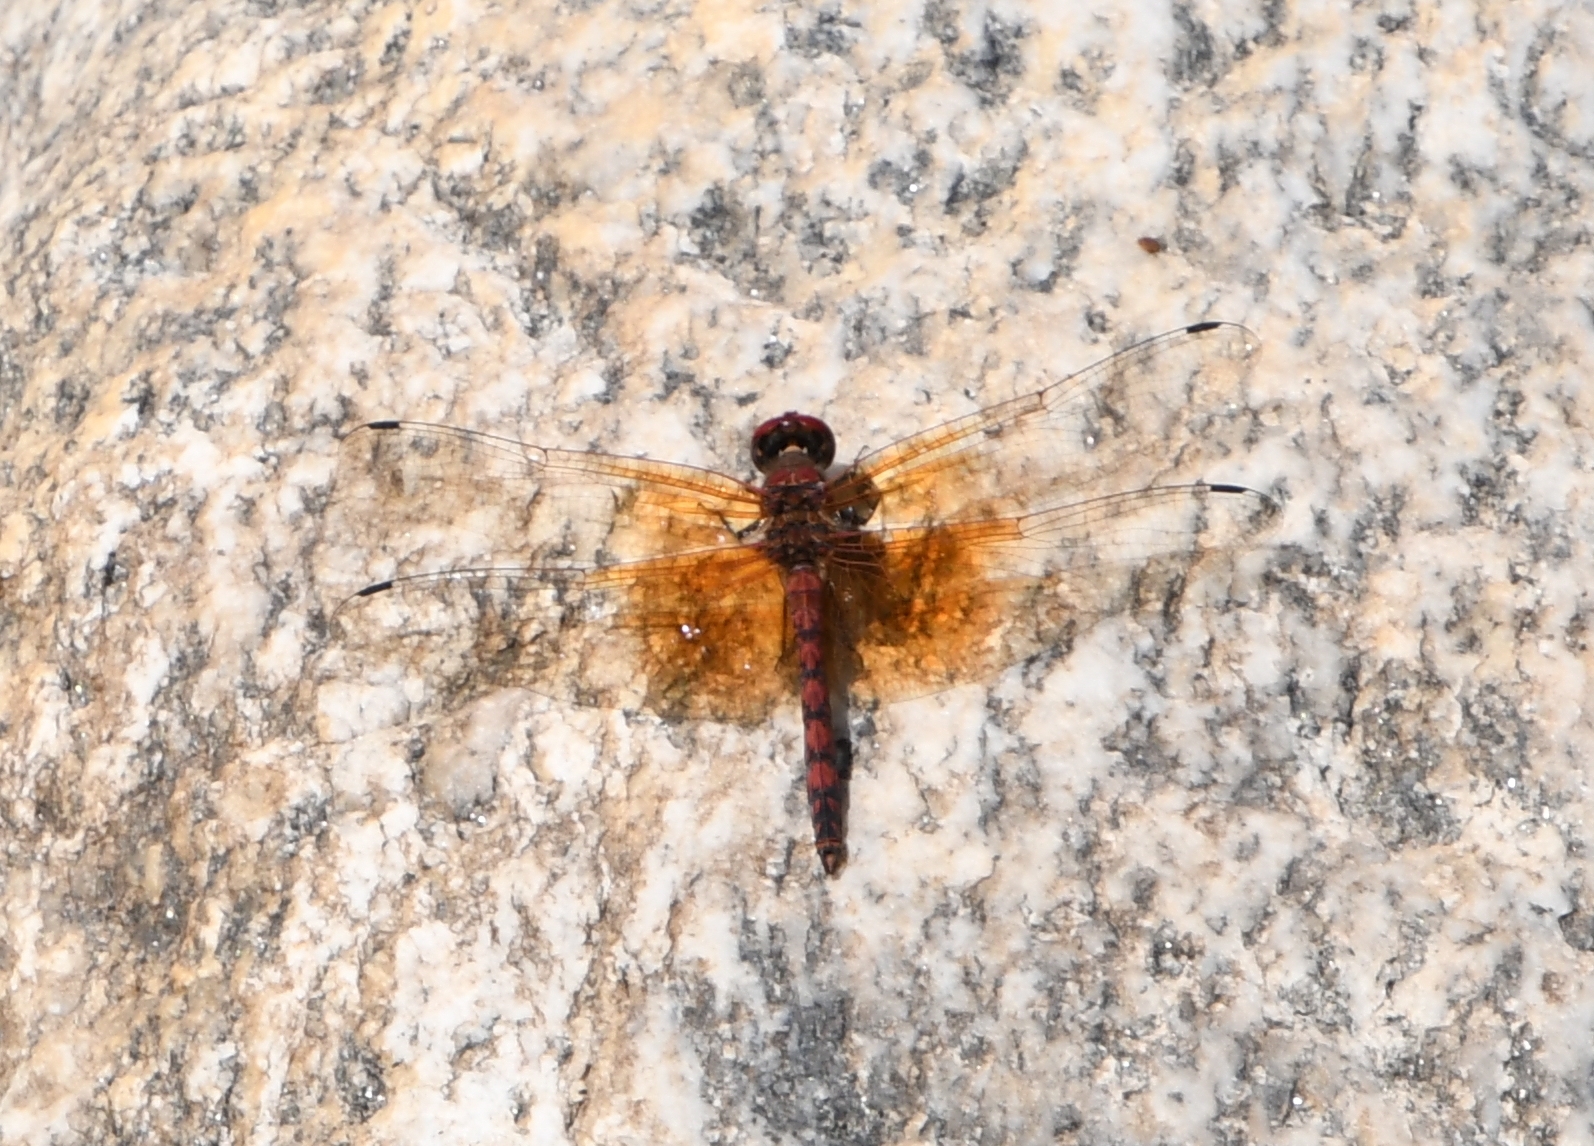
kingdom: Animalia
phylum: Arthropoda
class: Insecta
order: Odonata
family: Libellulidae
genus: Paltothemis
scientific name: Paltothemis lineatipes
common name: Red rock skimmer
